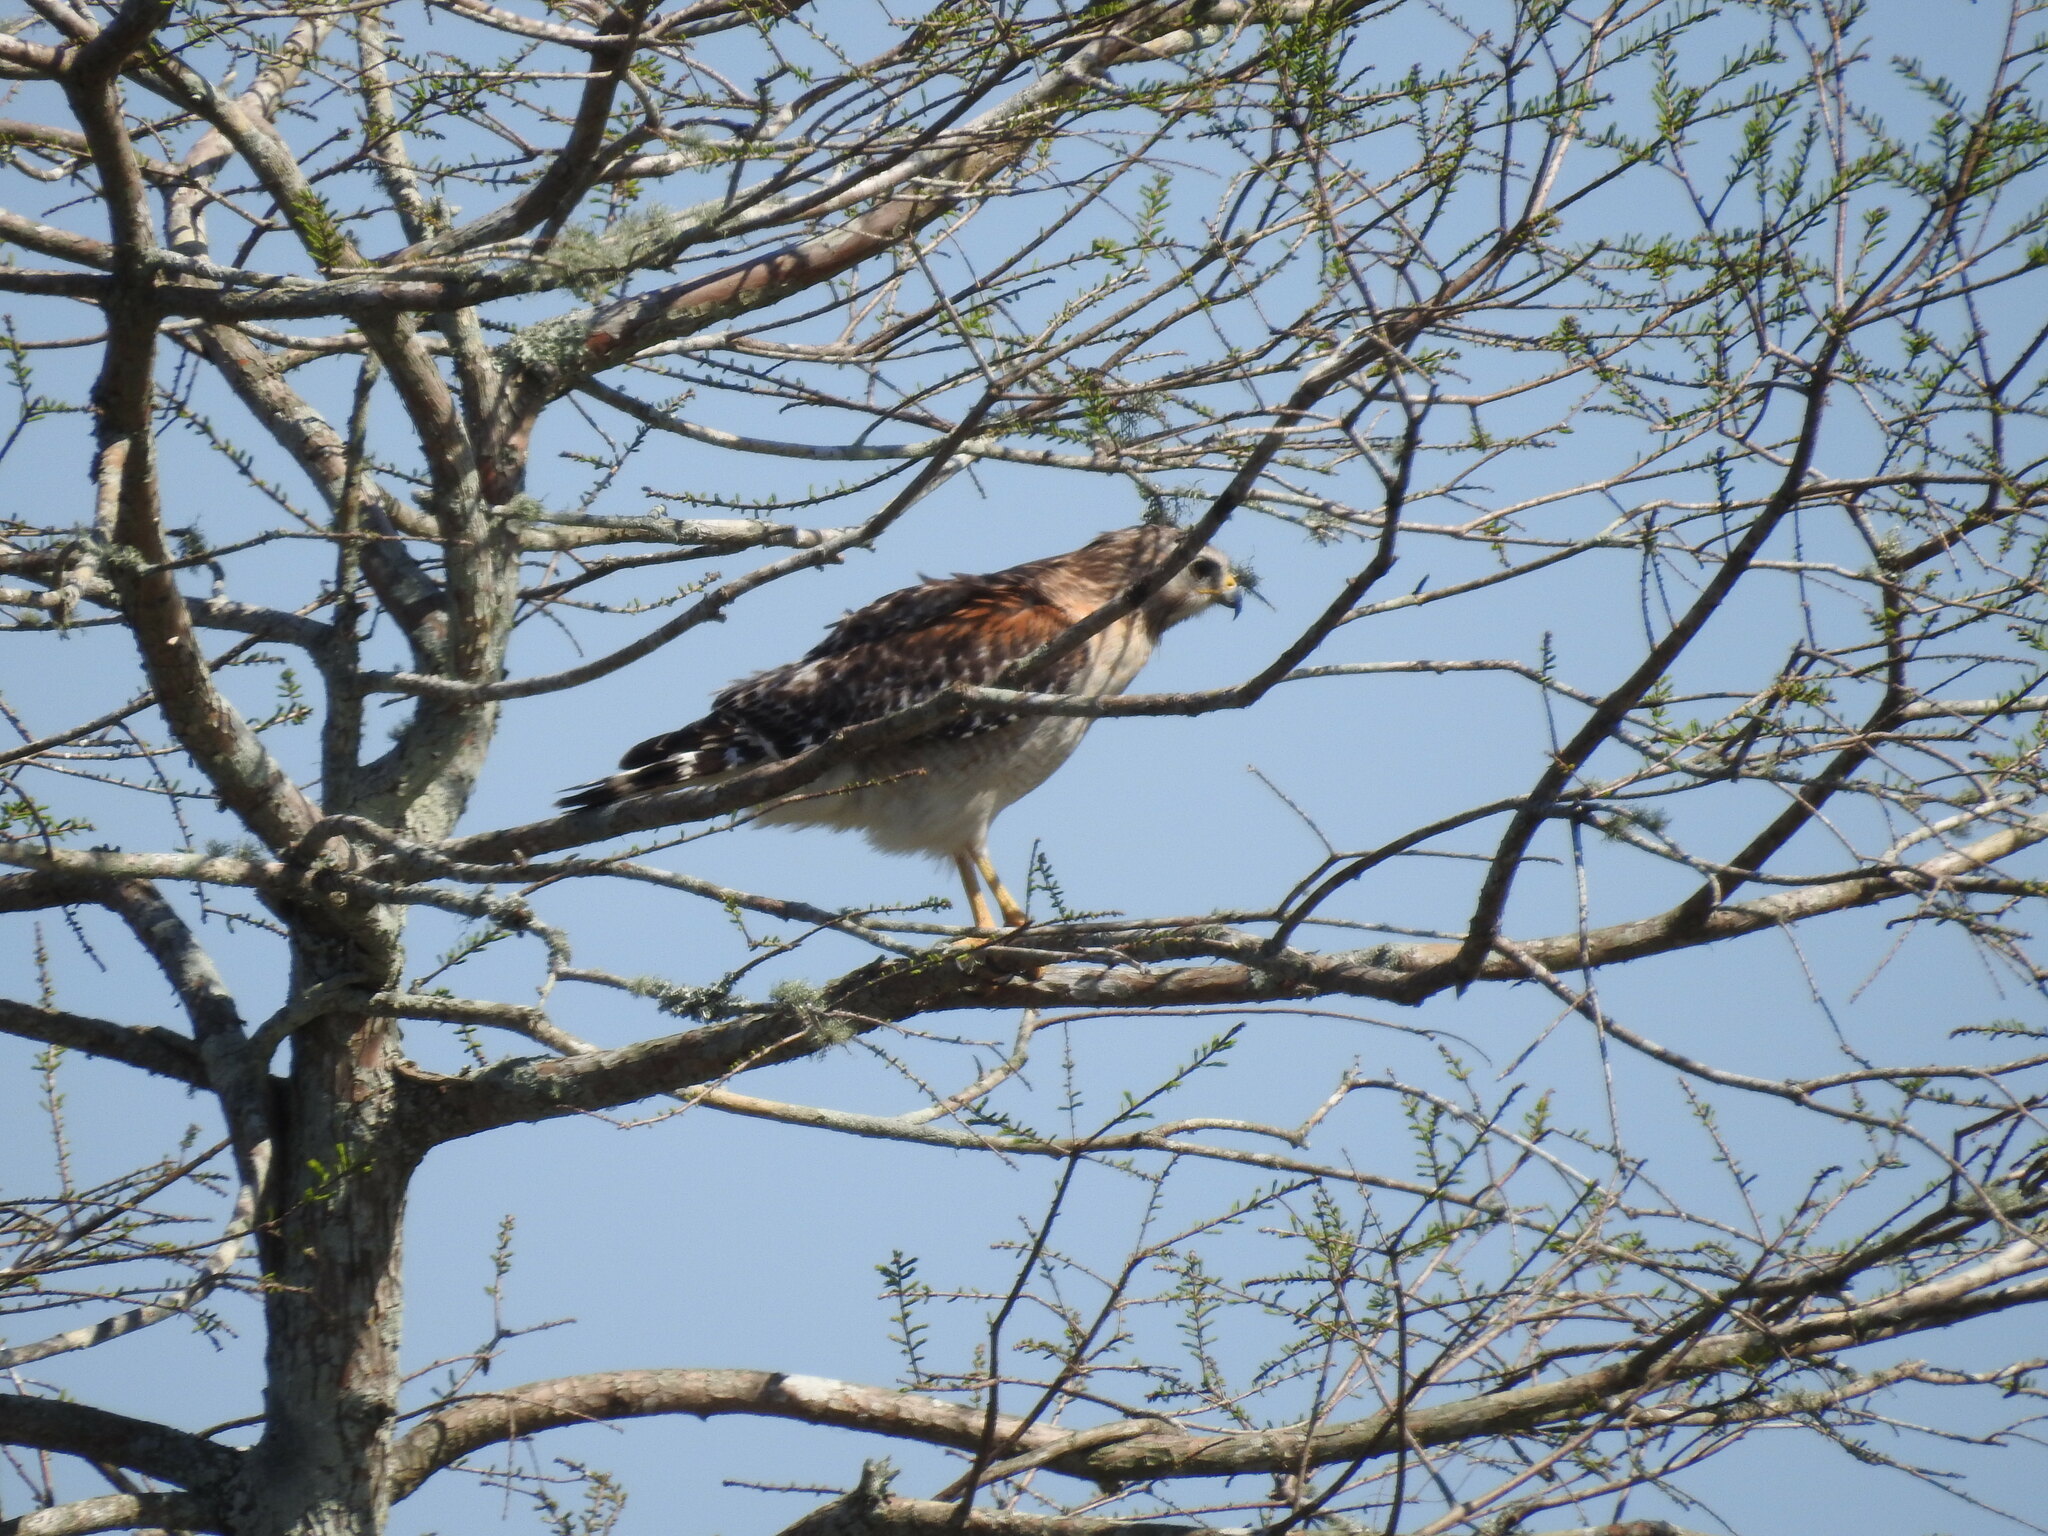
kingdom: Animalia
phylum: Chordata
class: Aves
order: Accipitriformes
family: Accipitridae
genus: Buteo
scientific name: Buteo lineatus
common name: Red-shouldered hawk
